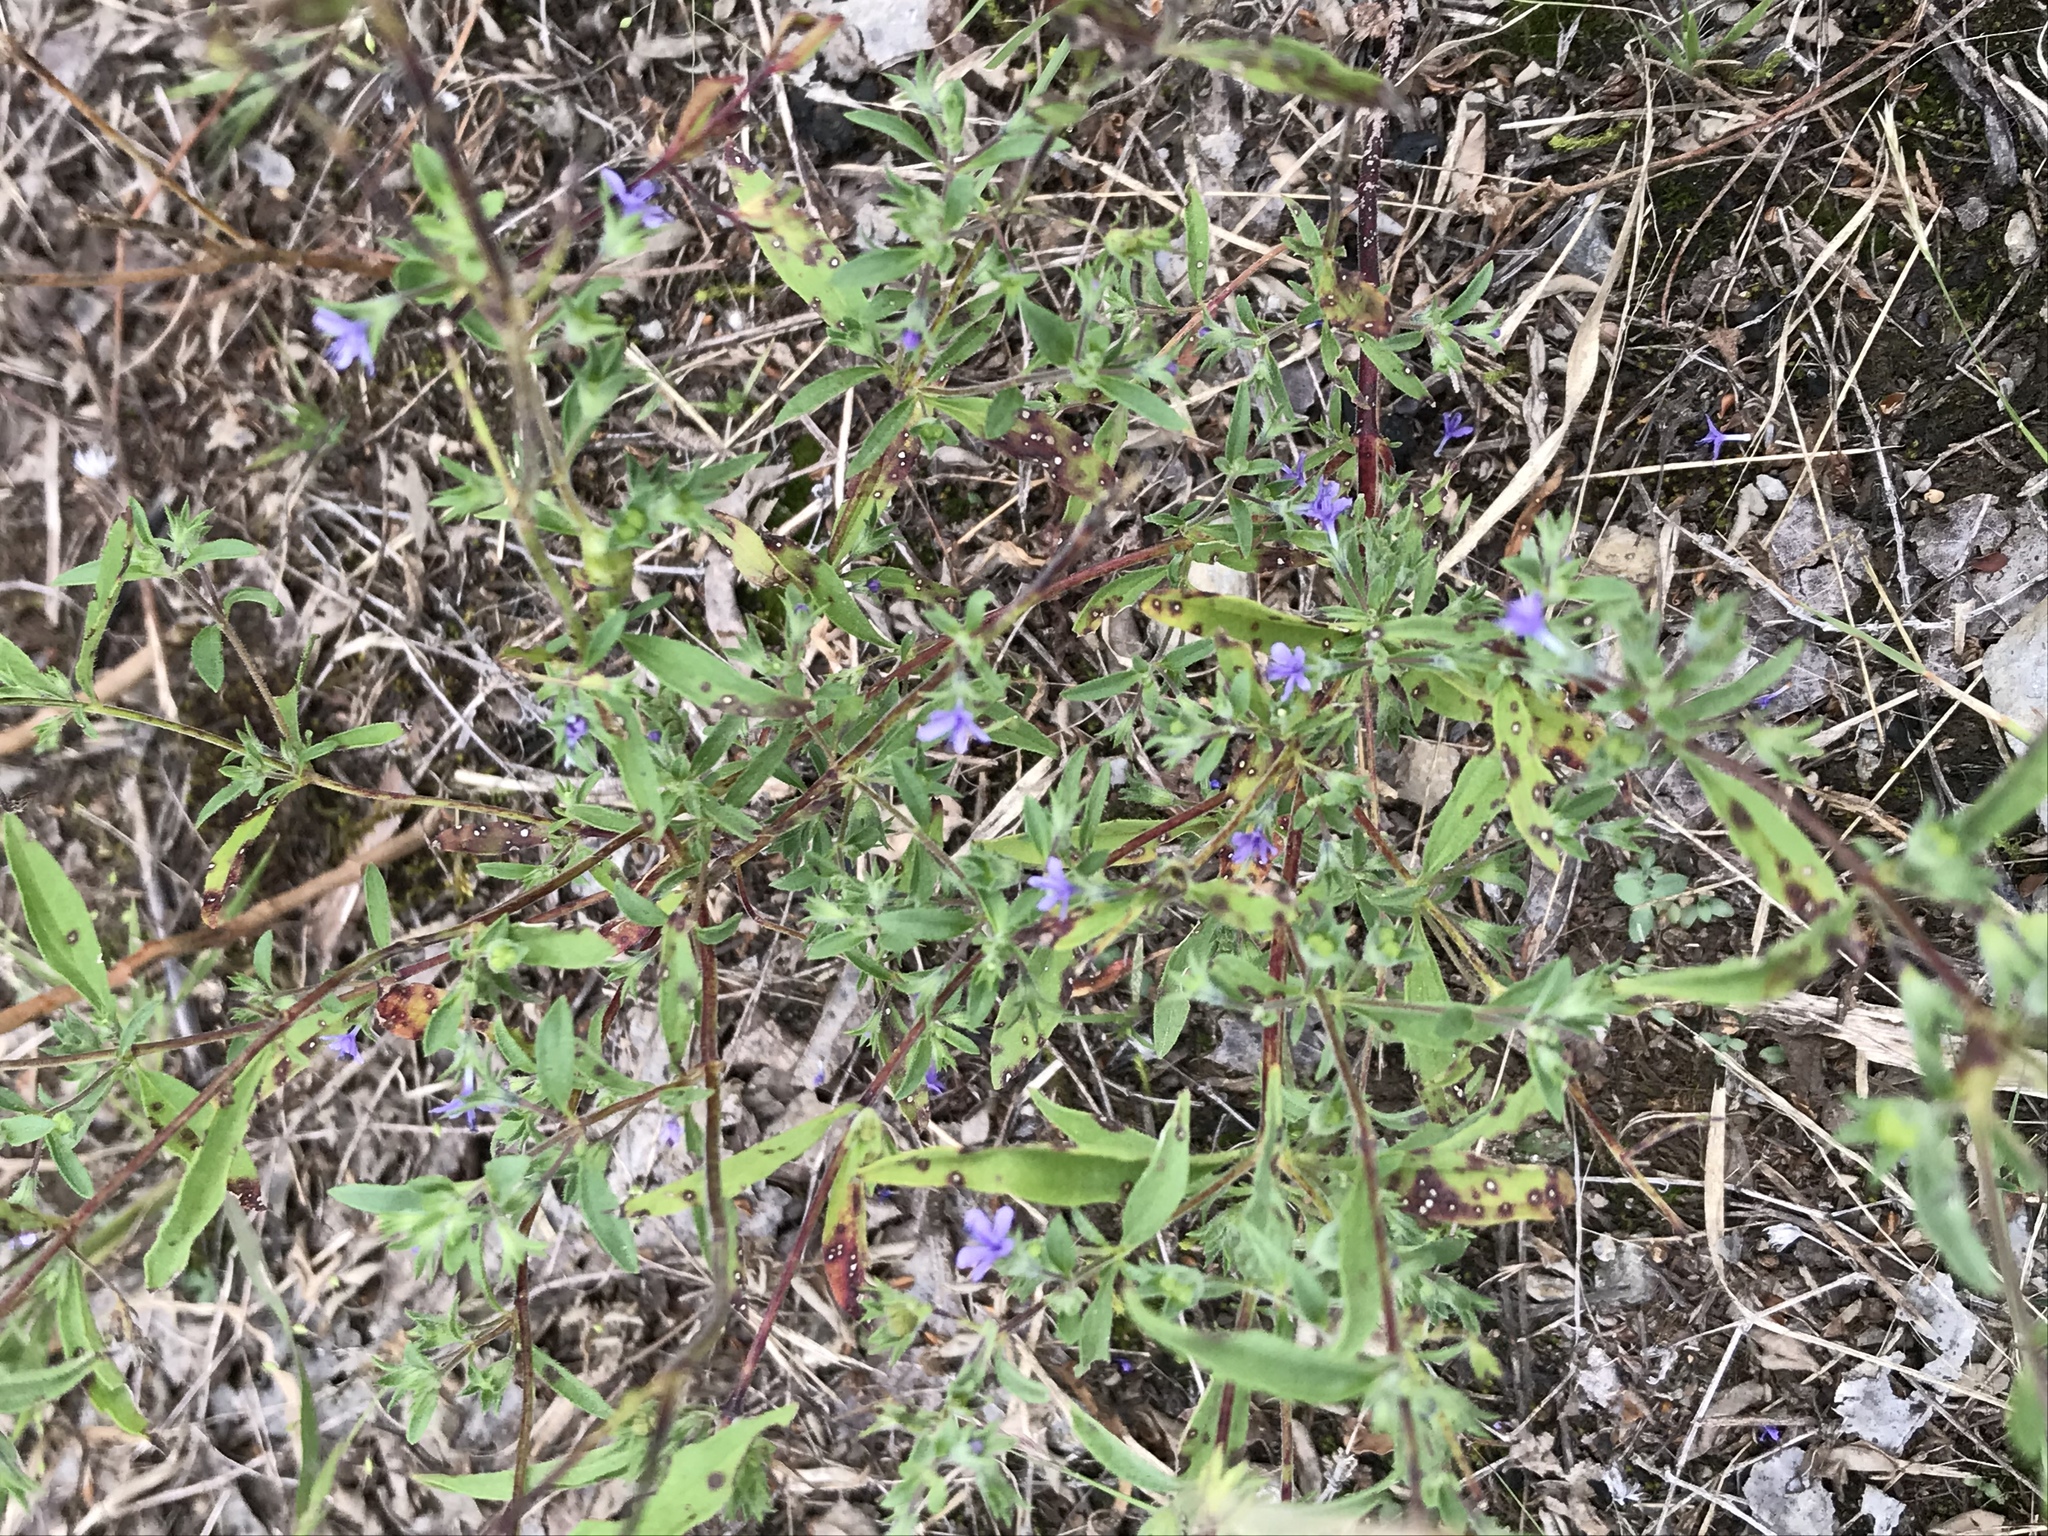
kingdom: Plantae
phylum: Tracheophyta
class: Magnoliopsida
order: Lamiales
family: Lamiaceae
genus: Trichostema
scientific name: Trichostema brachiatum
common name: False pennyroyal
